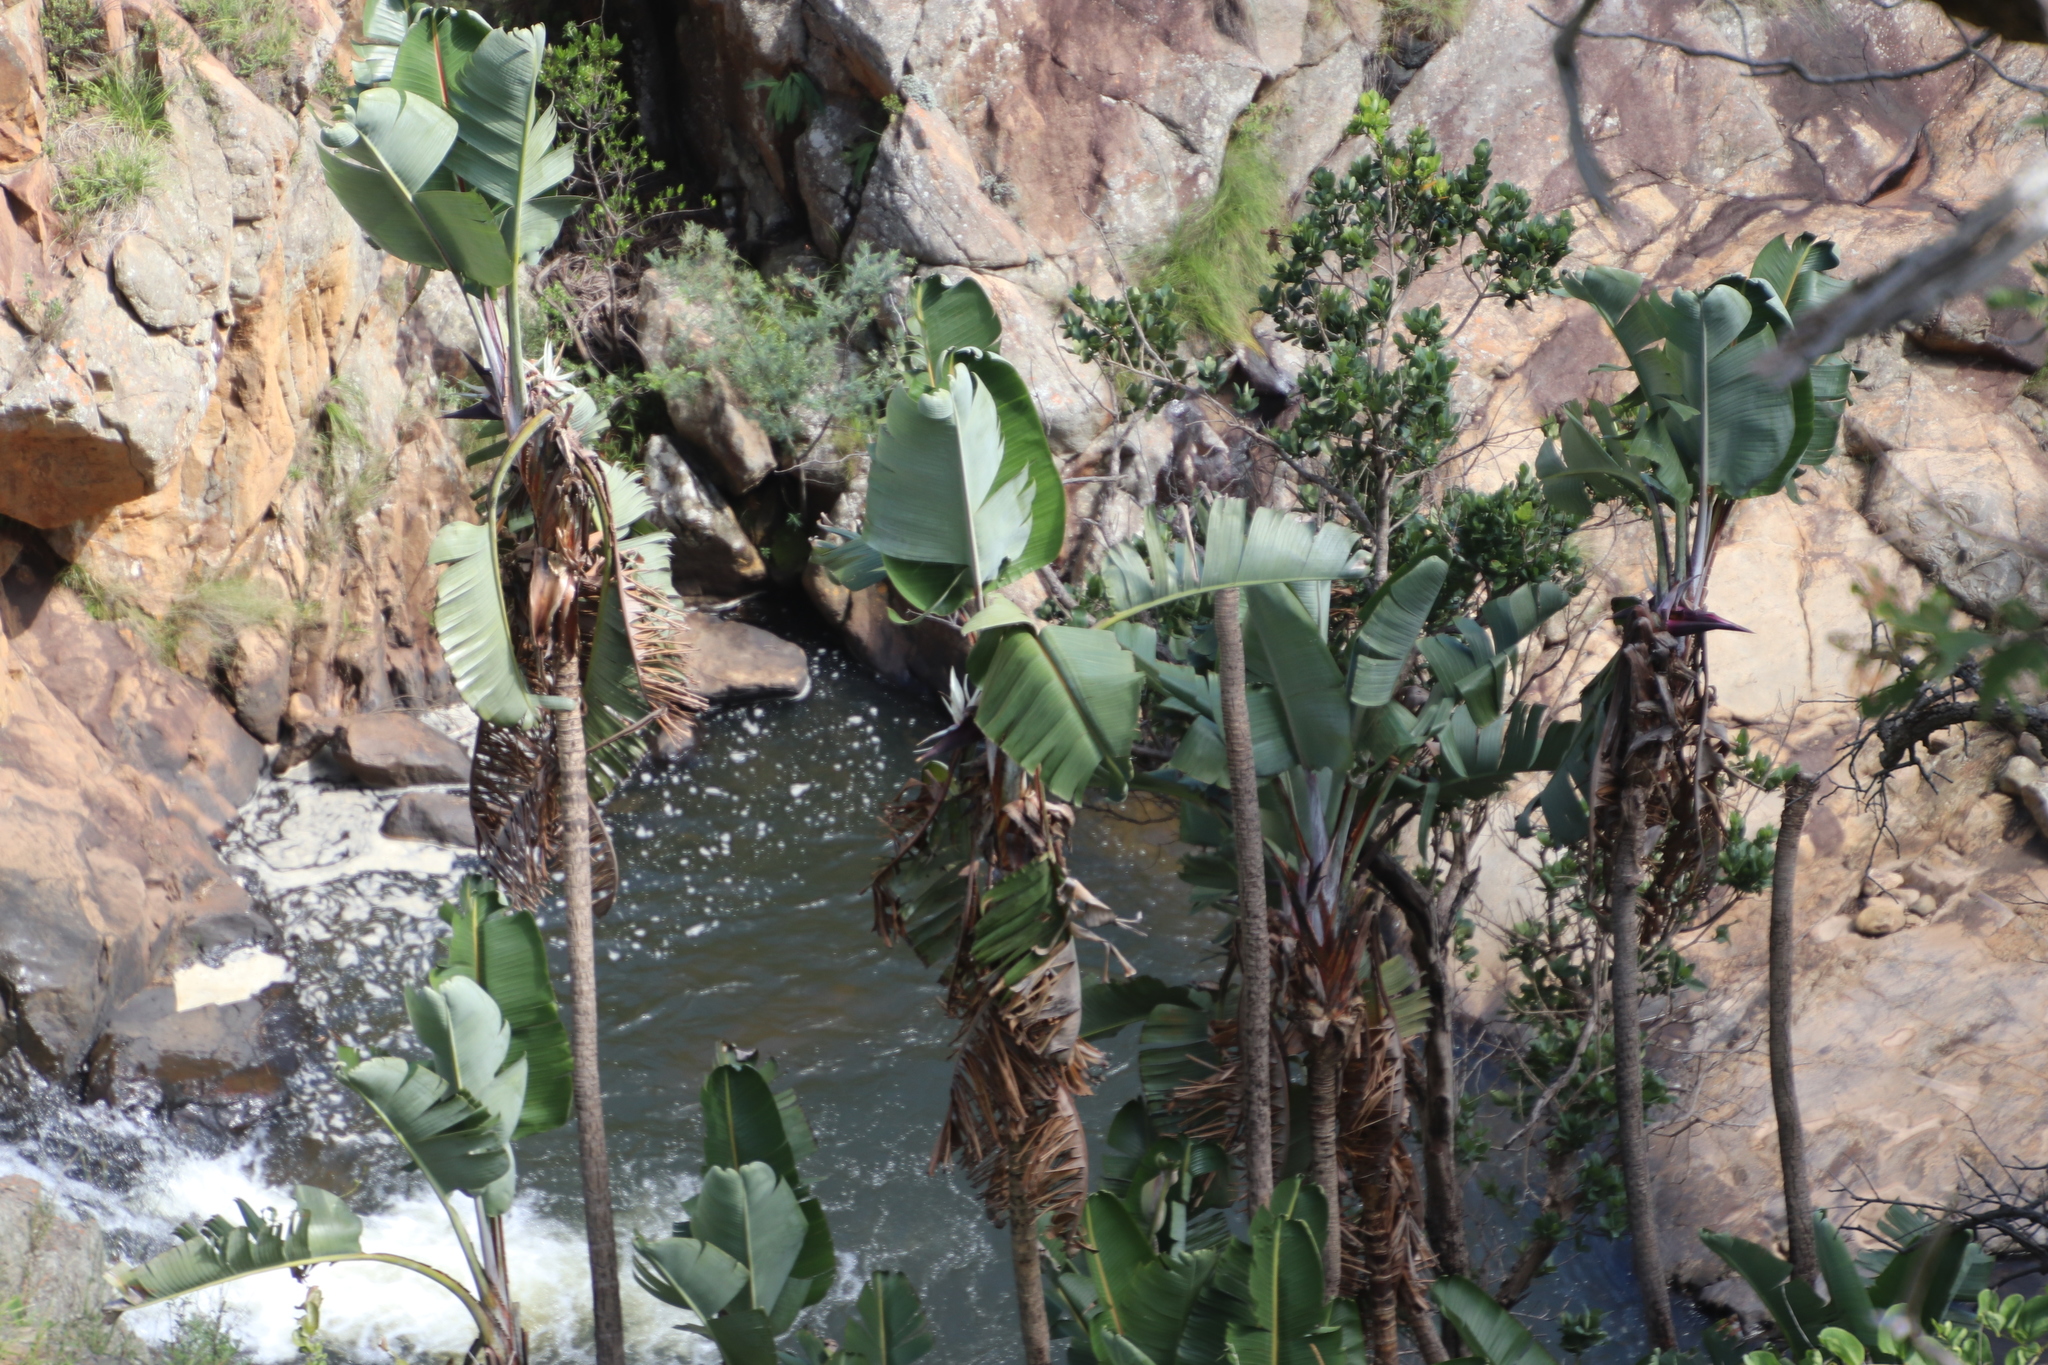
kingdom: Plantae
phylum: Tracheophyta
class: Liliopsida
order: Zingiberales
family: Strelitziaceae
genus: Strelitzia
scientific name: Strelitzia caudata
